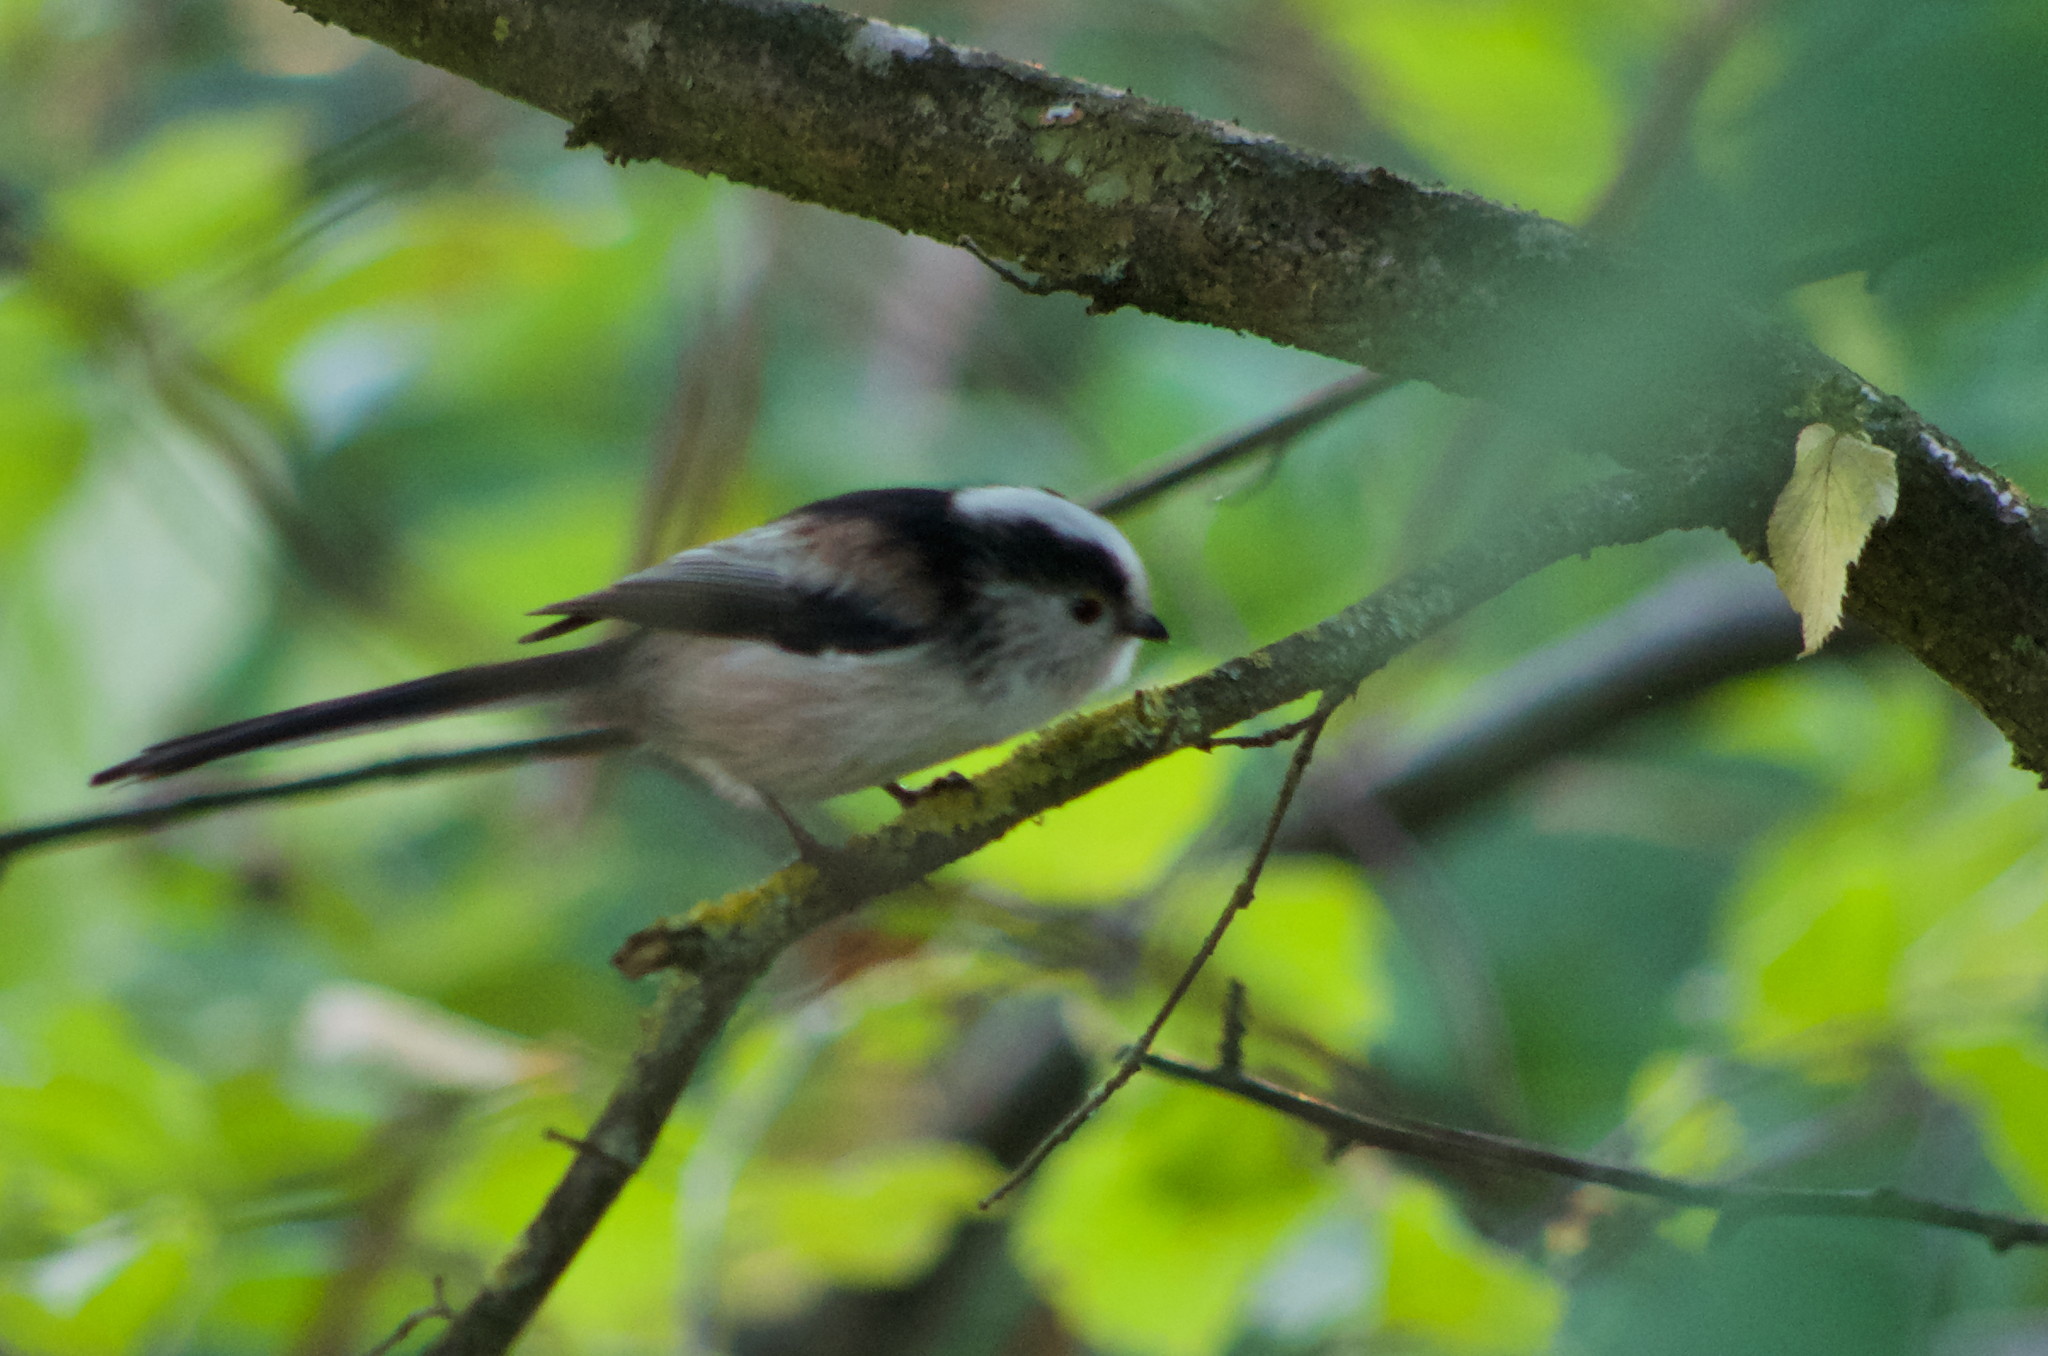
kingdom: Animalia
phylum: Chordata
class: Aves
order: Passeriformes
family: Aegithalidae
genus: Aegithalos
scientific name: Aegithalos caudatus
